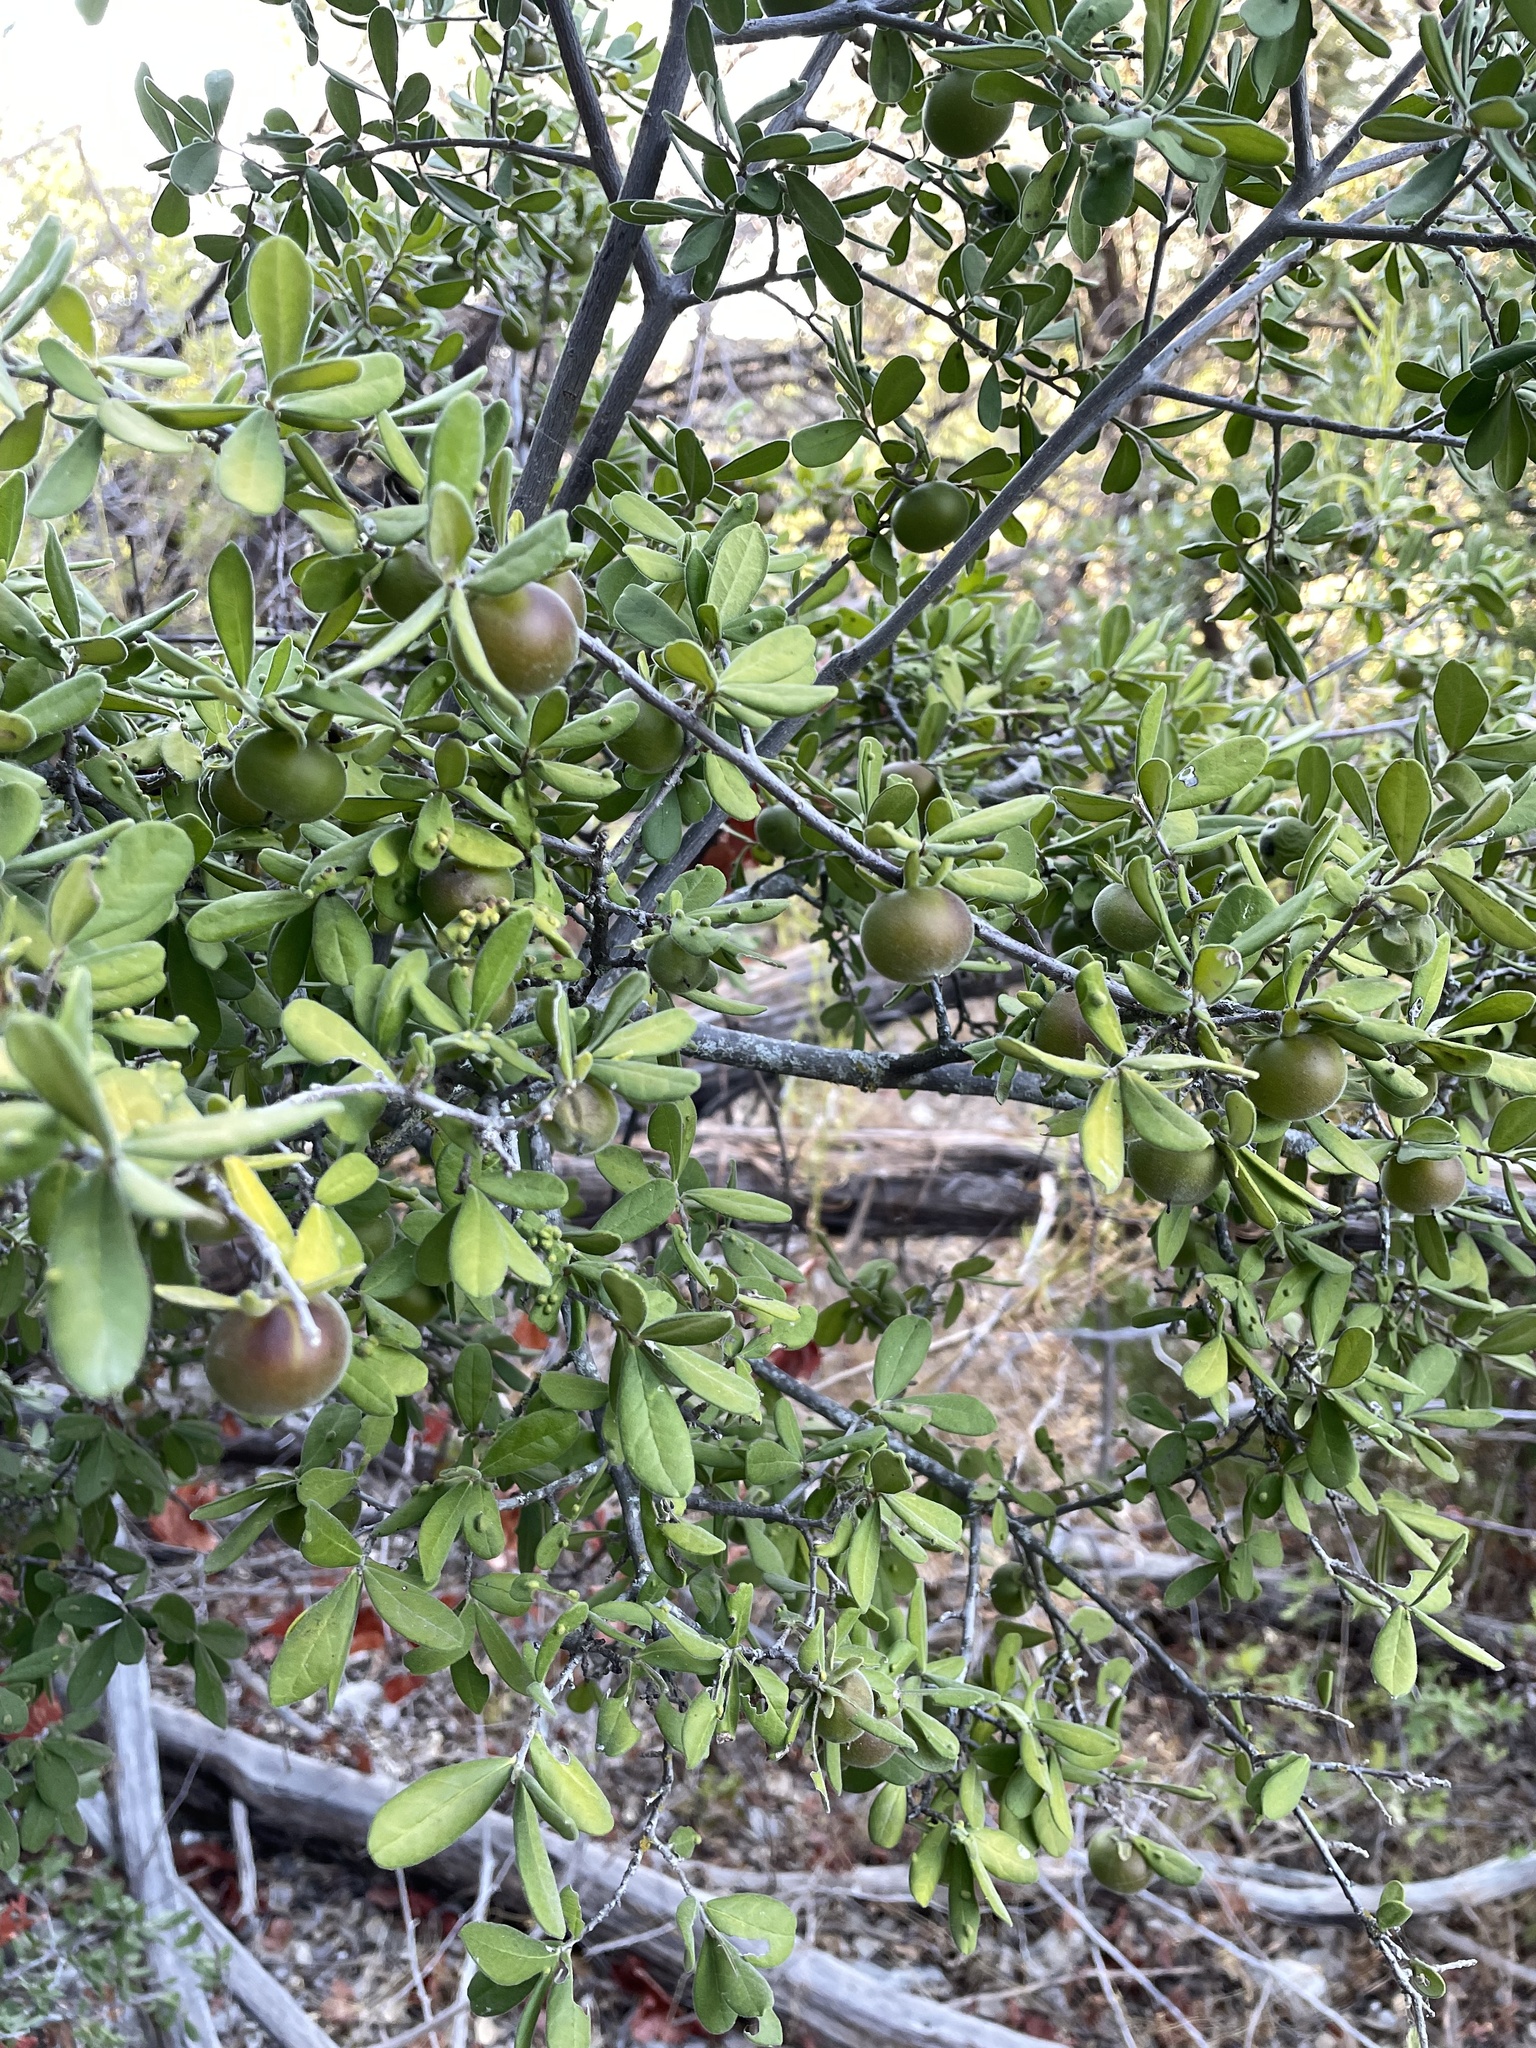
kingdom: Plantae
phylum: Tracheophyta
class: Magnoliopsida
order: Ericales
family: Ebenaceae
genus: Diospyros
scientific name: Diospyros texana
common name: Texas persimmon
